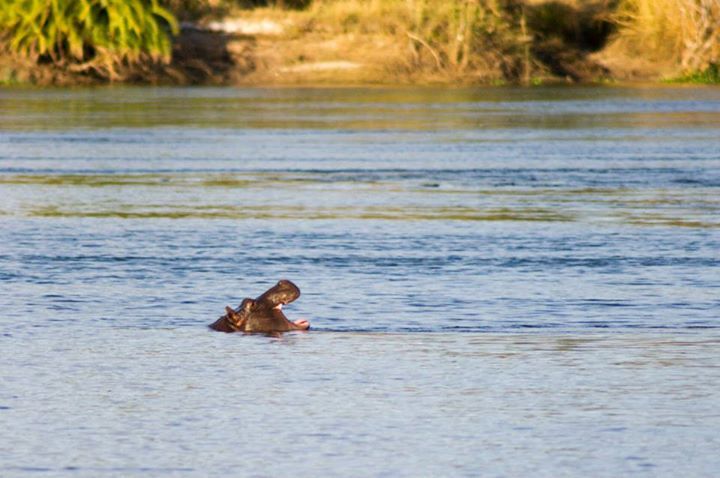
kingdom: Animalia
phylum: Chordata
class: Mammalia
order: Artiodactyla
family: Hippopotamidae
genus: Hippopotamus
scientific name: Hippopotamus amphibius
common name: Common hippopotamus
